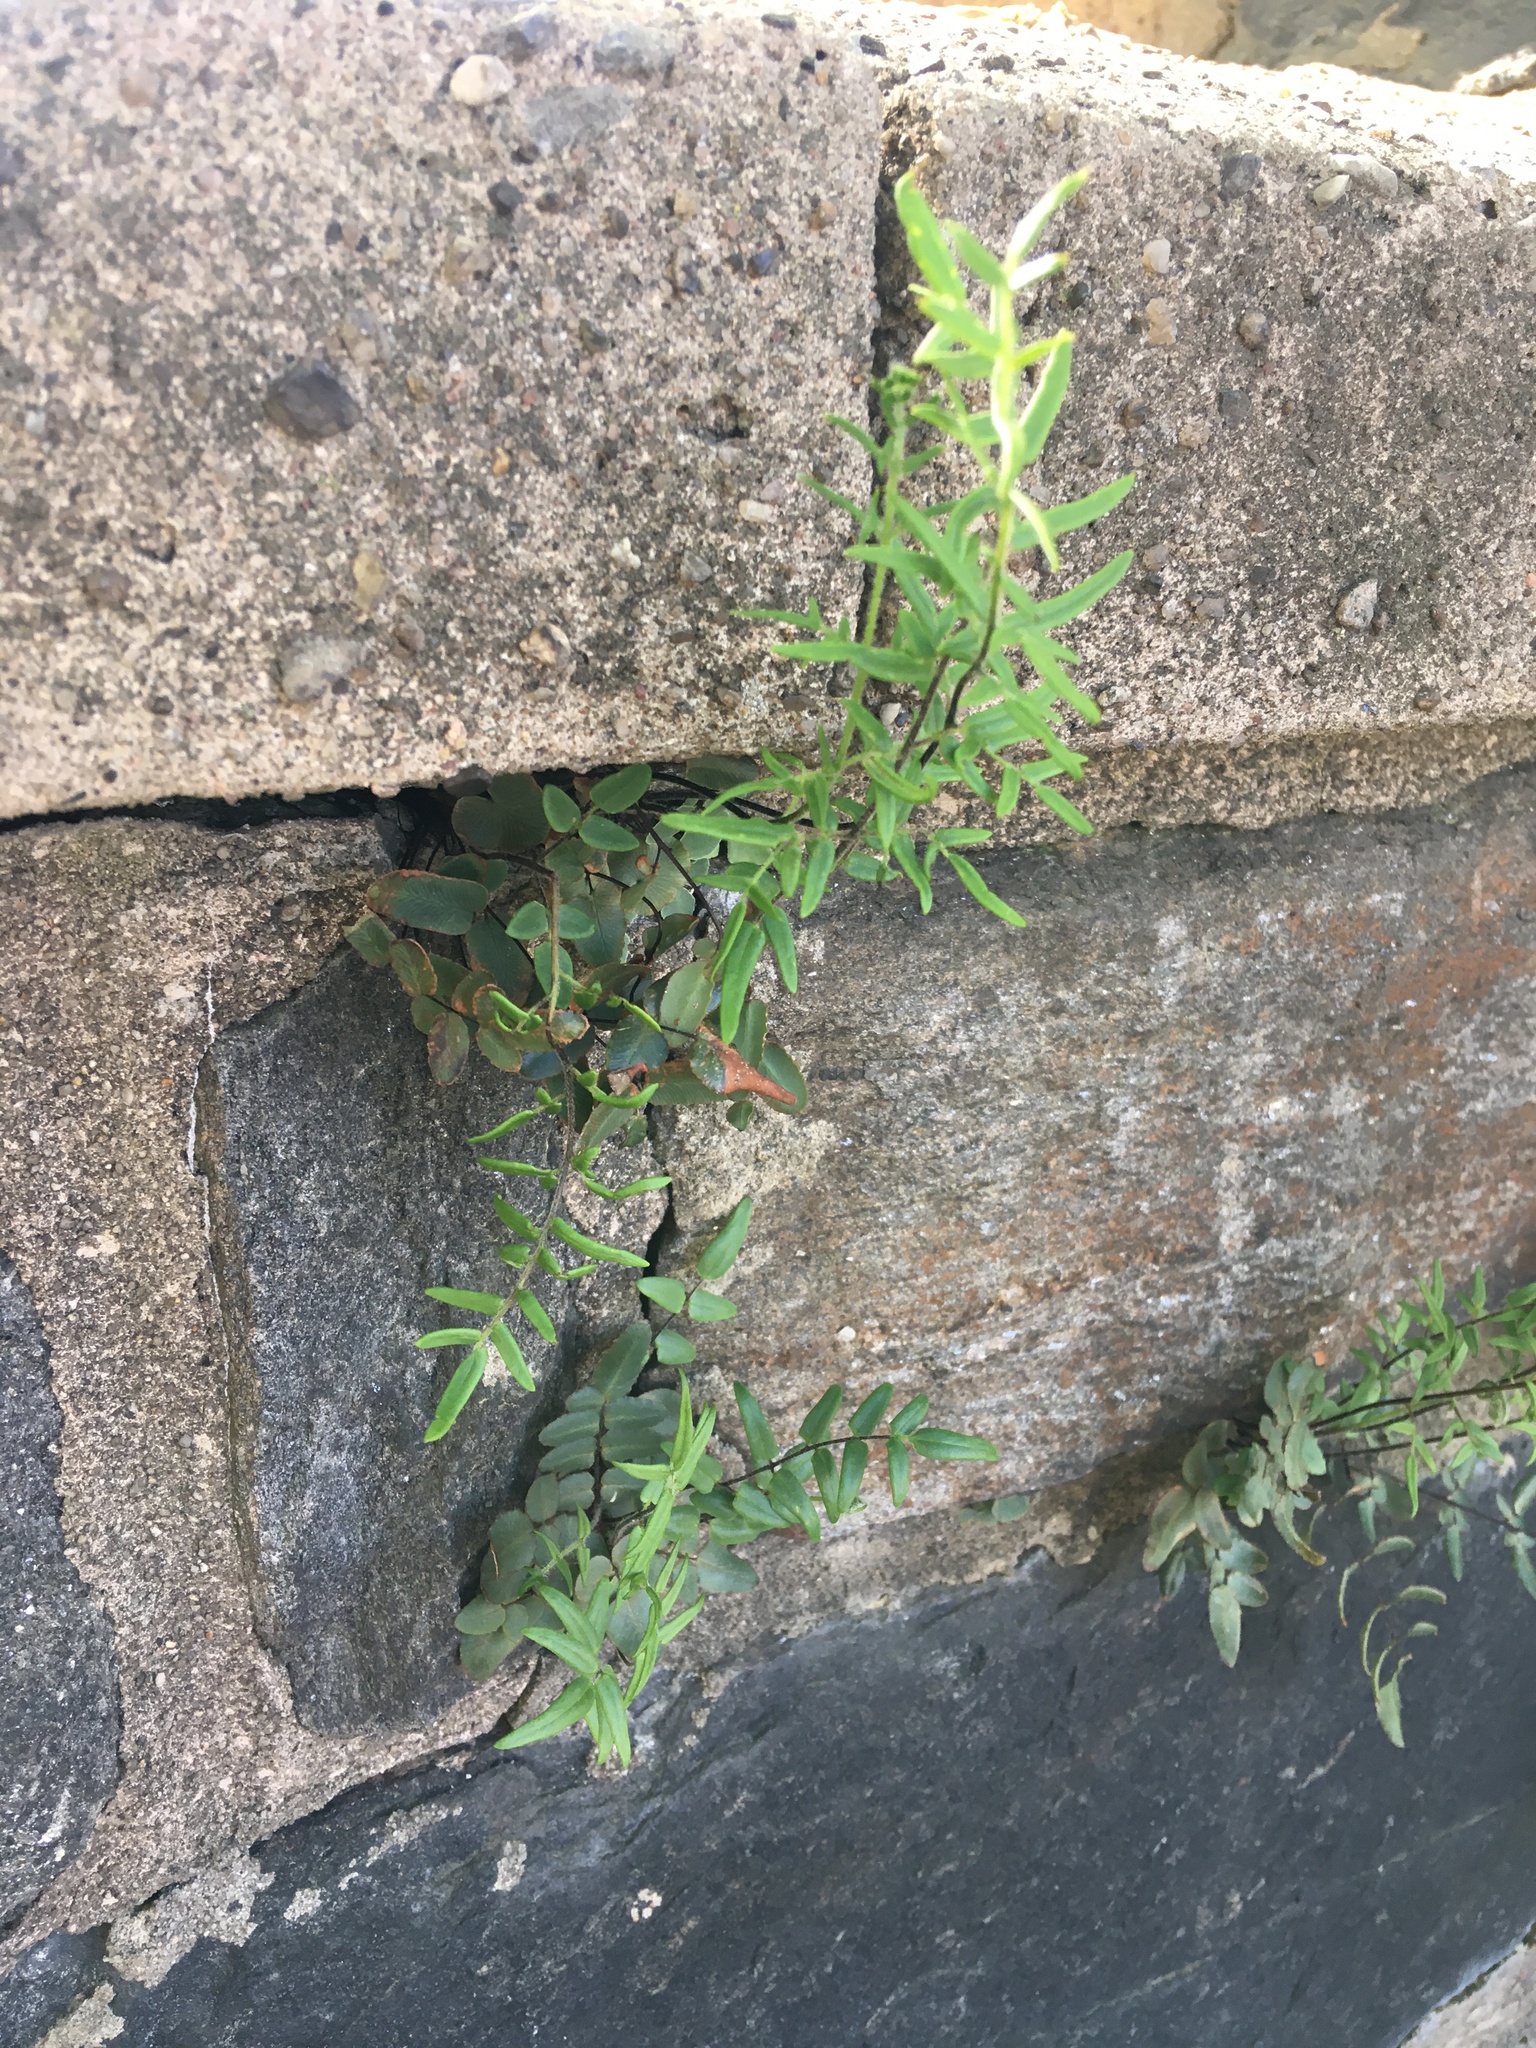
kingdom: Plantae
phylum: Tracheophyta
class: Polypodiopsida
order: Polypodiales
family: Pteridaceae
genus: Pellaea
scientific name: Pellaea atropurpurea
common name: Hairy cliffbrake
